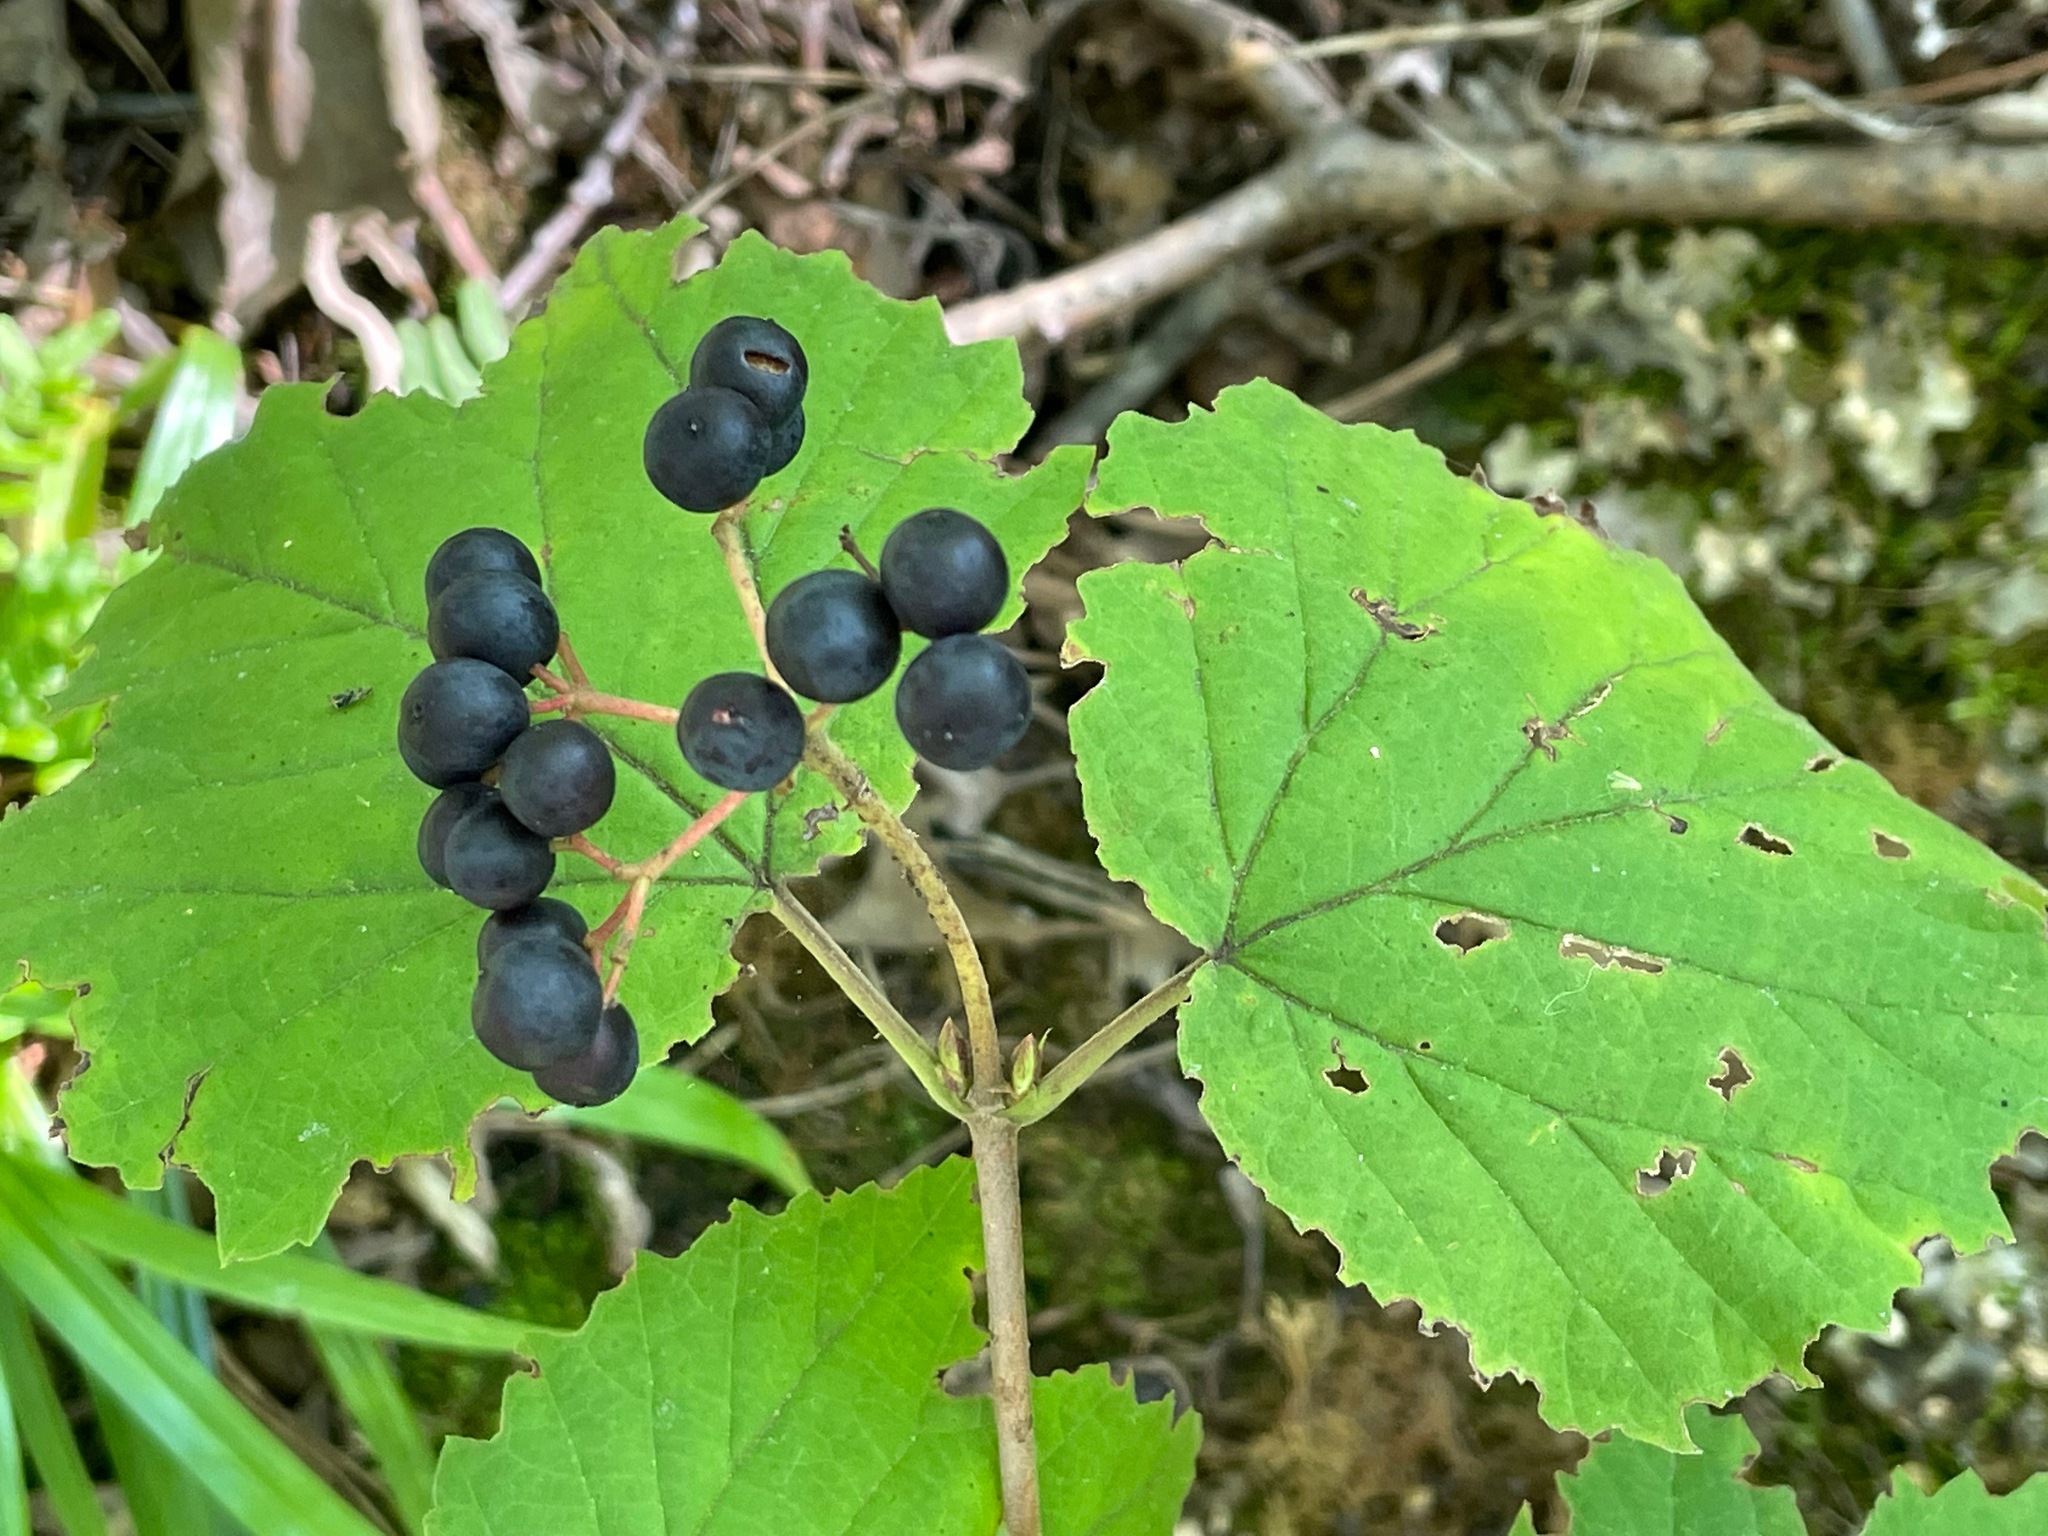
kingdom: Plantae
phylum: Tracheophyta
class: Magnoliopsida
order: Dipsacales
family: Viburnaceae
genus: Viburnum
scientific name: Viburnum acerifolium
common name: Dockmackie
